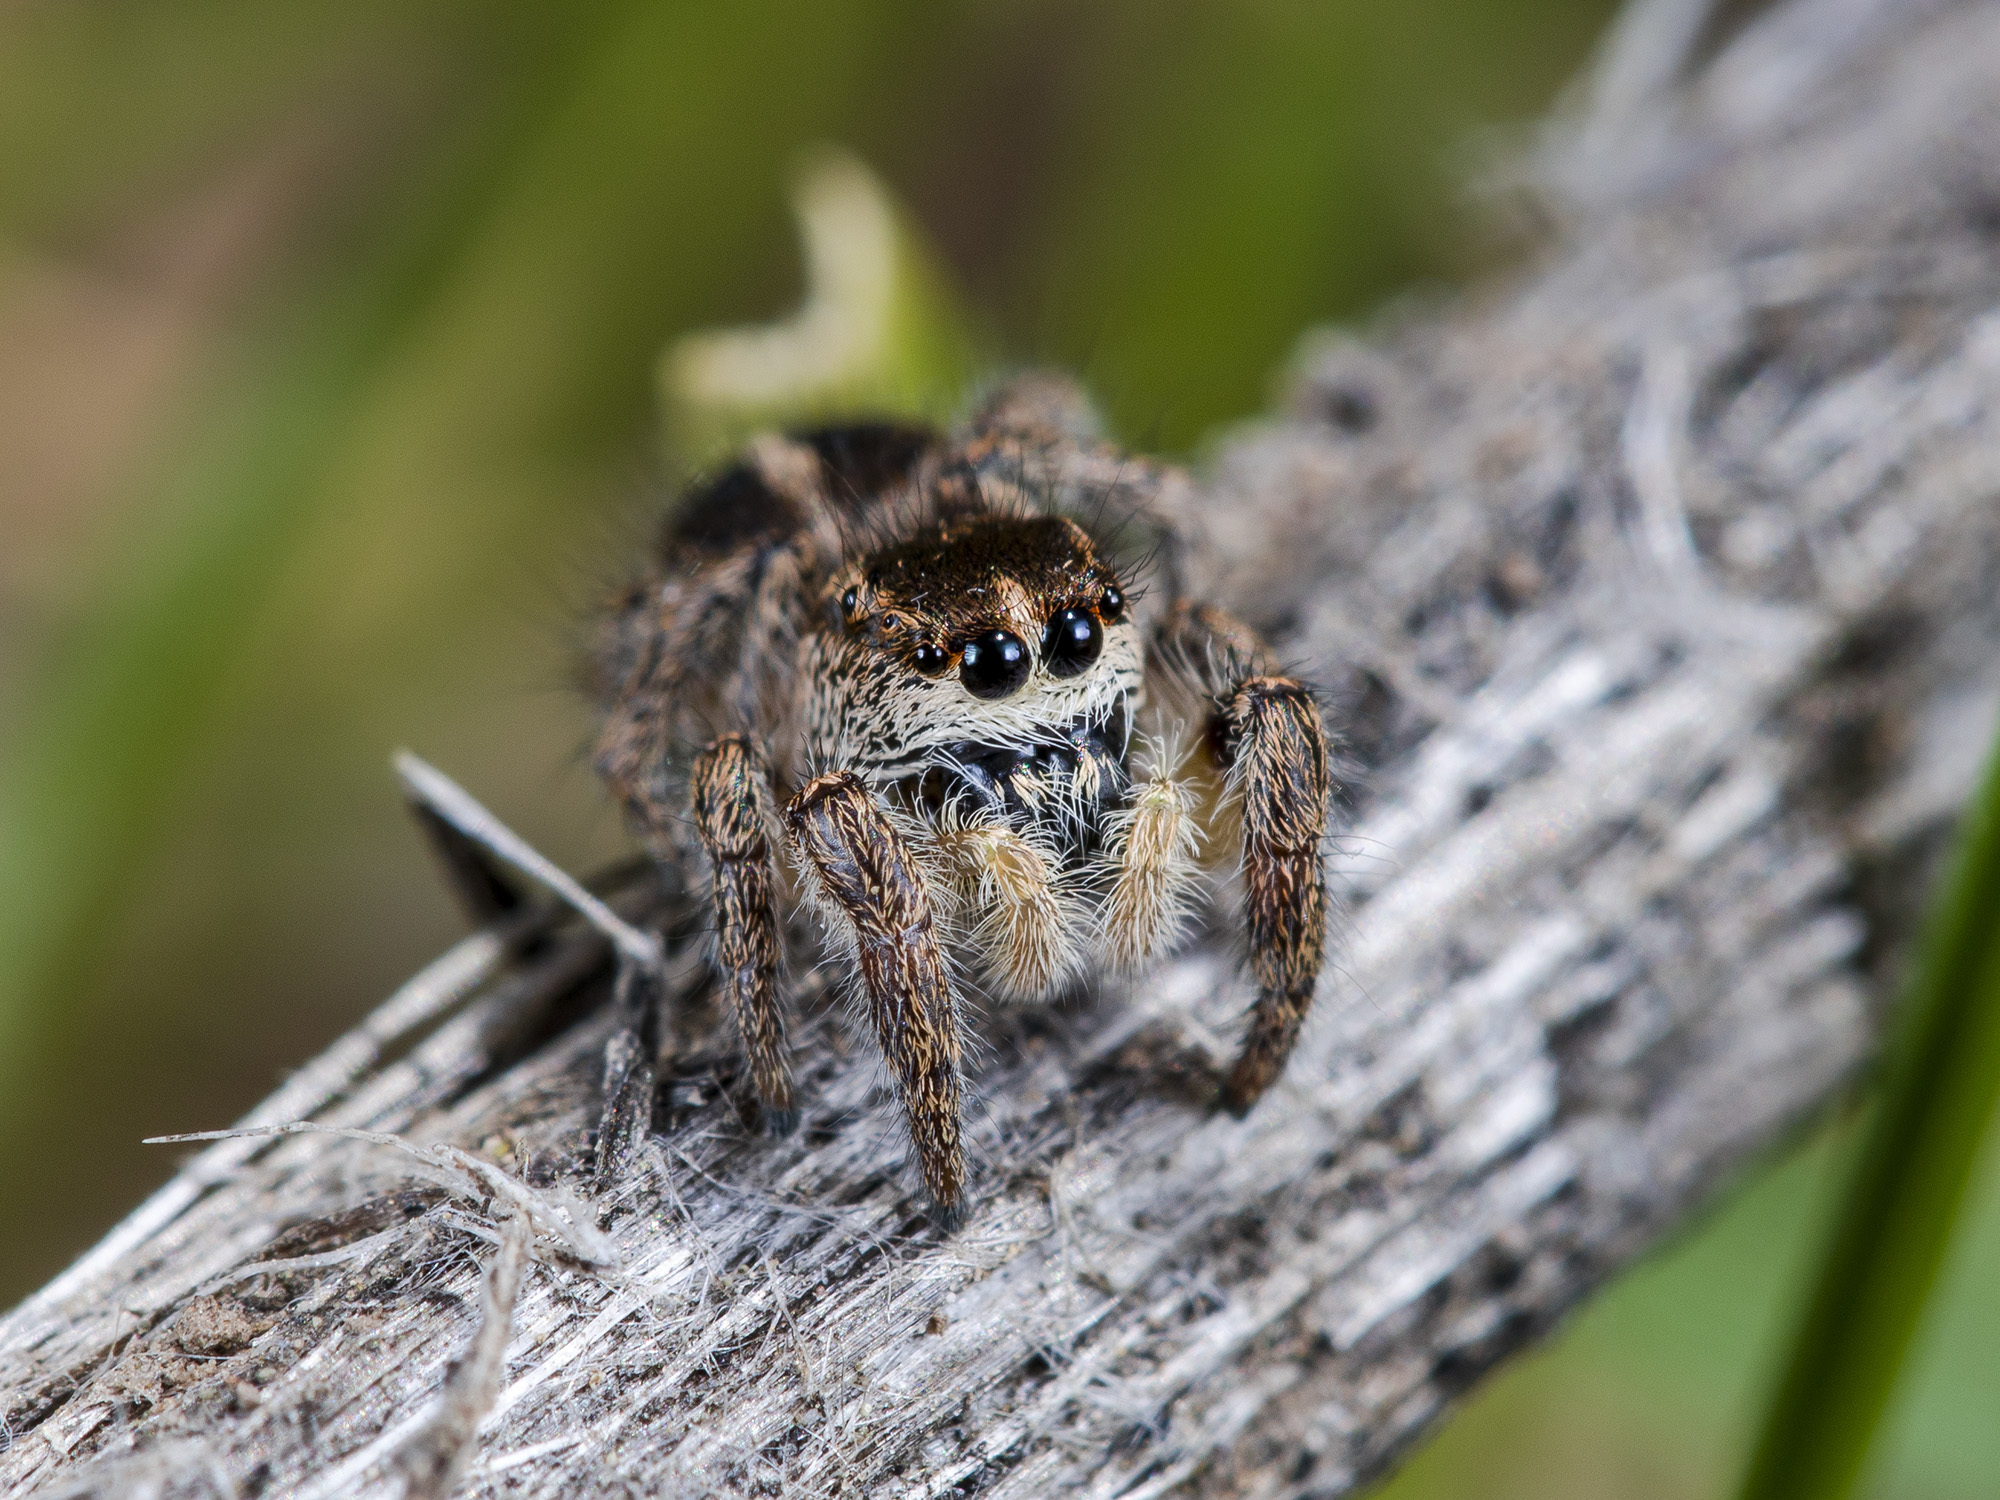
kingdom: Animalia
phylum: Arthropoda
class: Arachnida
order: Araneae
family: Salticidae
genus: Pellenes
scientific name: Pellenes sibiricus
